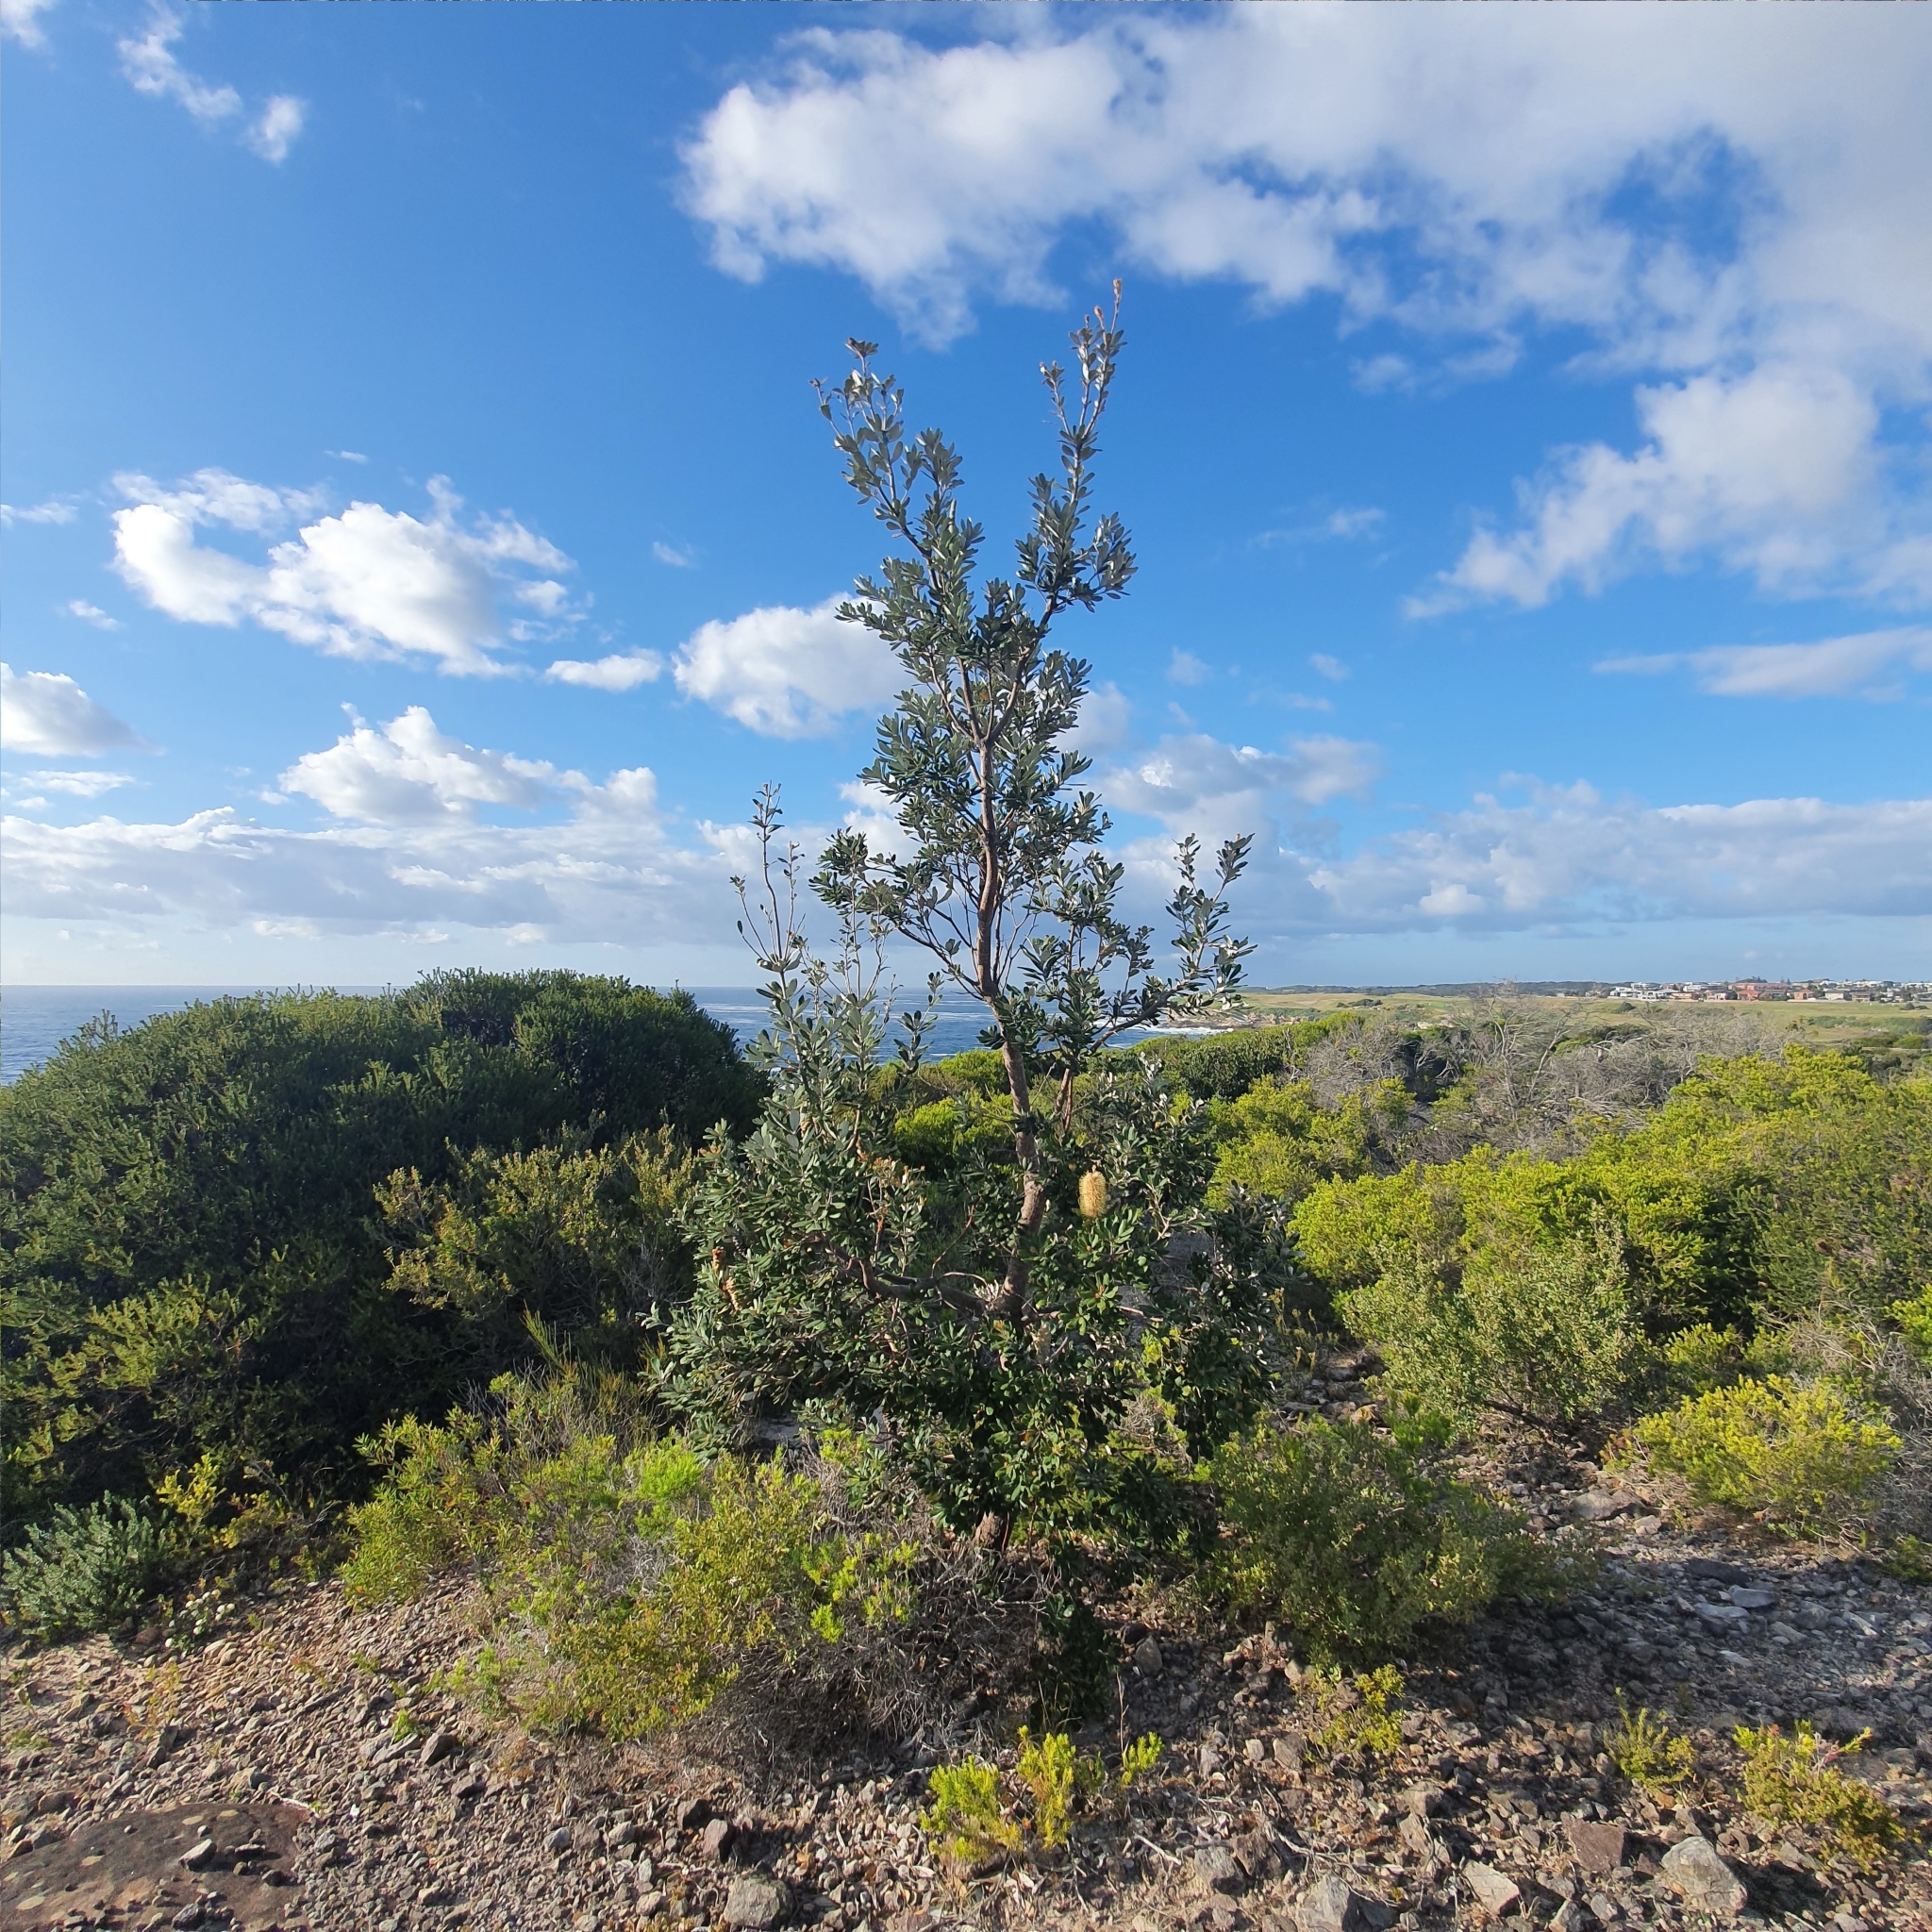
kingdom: Plantae
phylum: Tracheophyta
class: Magnoliopsida
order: Proteales
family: Proteaceae
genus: Banksia
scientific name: Banksia integrifolia
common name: White-honeysuckle
